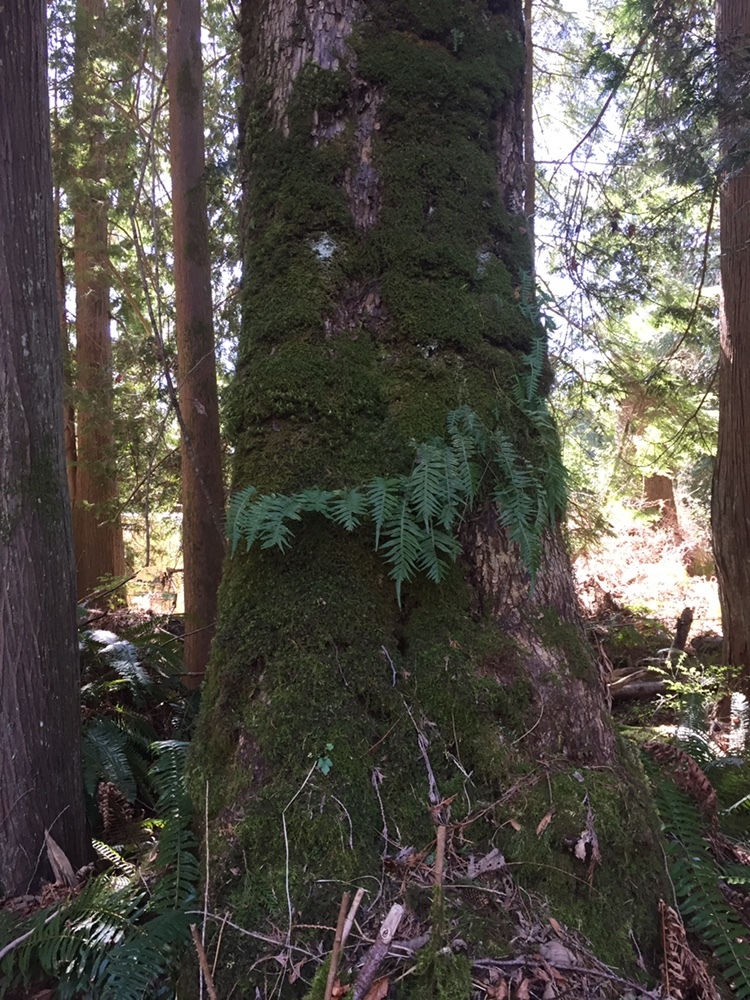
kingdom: Plantae
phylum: Tracheophyta
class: Polypodiopsida
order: Polypodiales
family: Polypodiaceae
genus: Polypodium
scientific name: Polypodium glycyrrhiza
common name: Licorice fern
